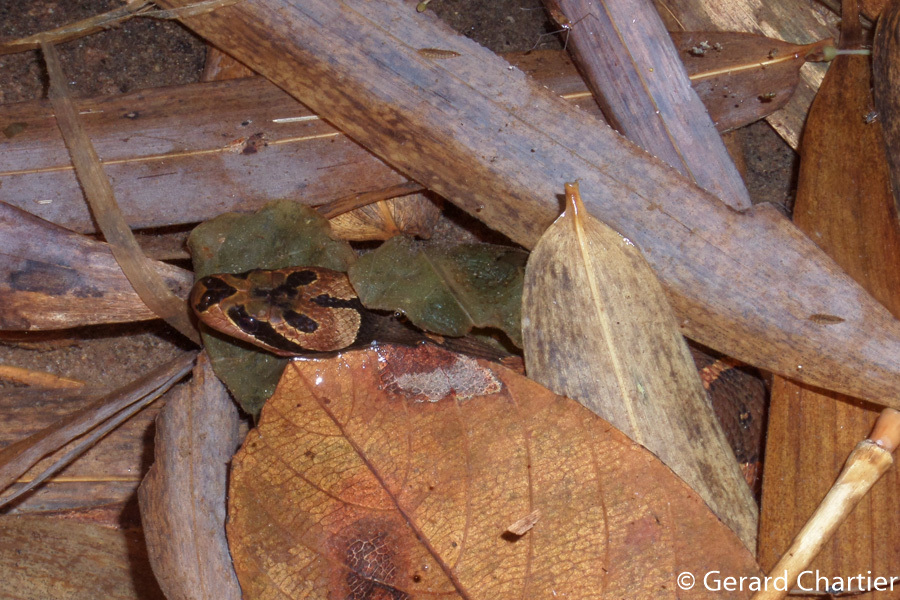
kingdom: Animalia
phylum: Chordata
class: Squamata
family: Homalopsidae
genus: Homalopsis
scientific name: Homalopsis mereljcoxi
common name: Jack’s water snake
